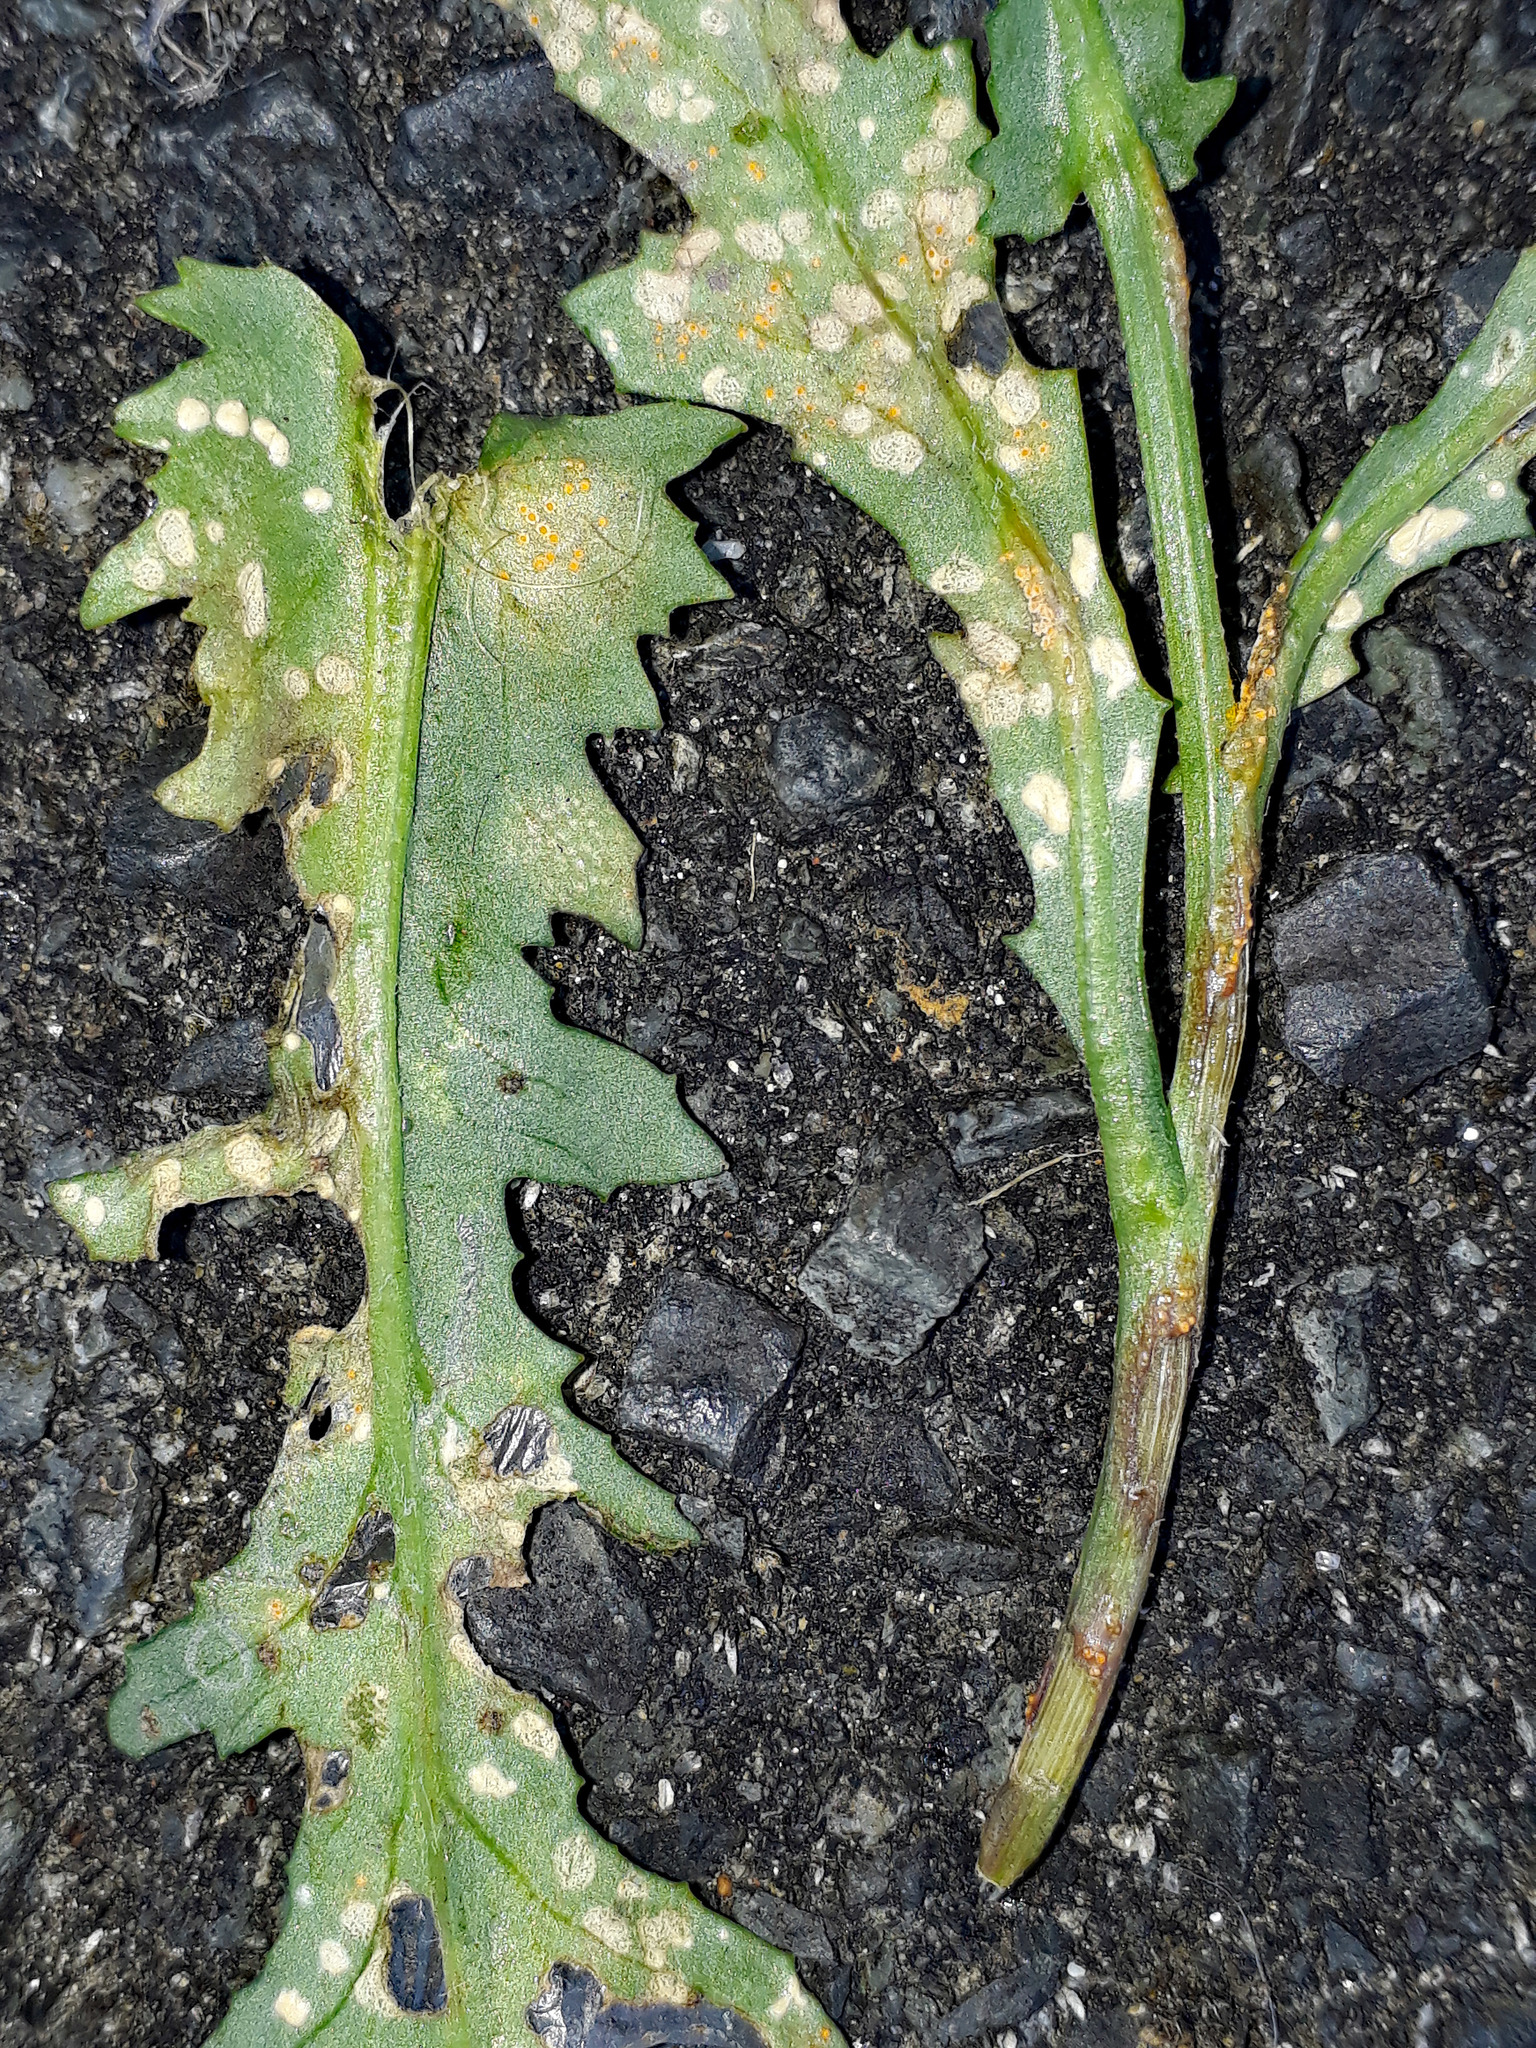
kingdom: Chromista
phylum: Oomycota
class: Peronosporea
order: Albuginales
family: Albuginaceae
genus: Pustula
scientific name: Pustula
